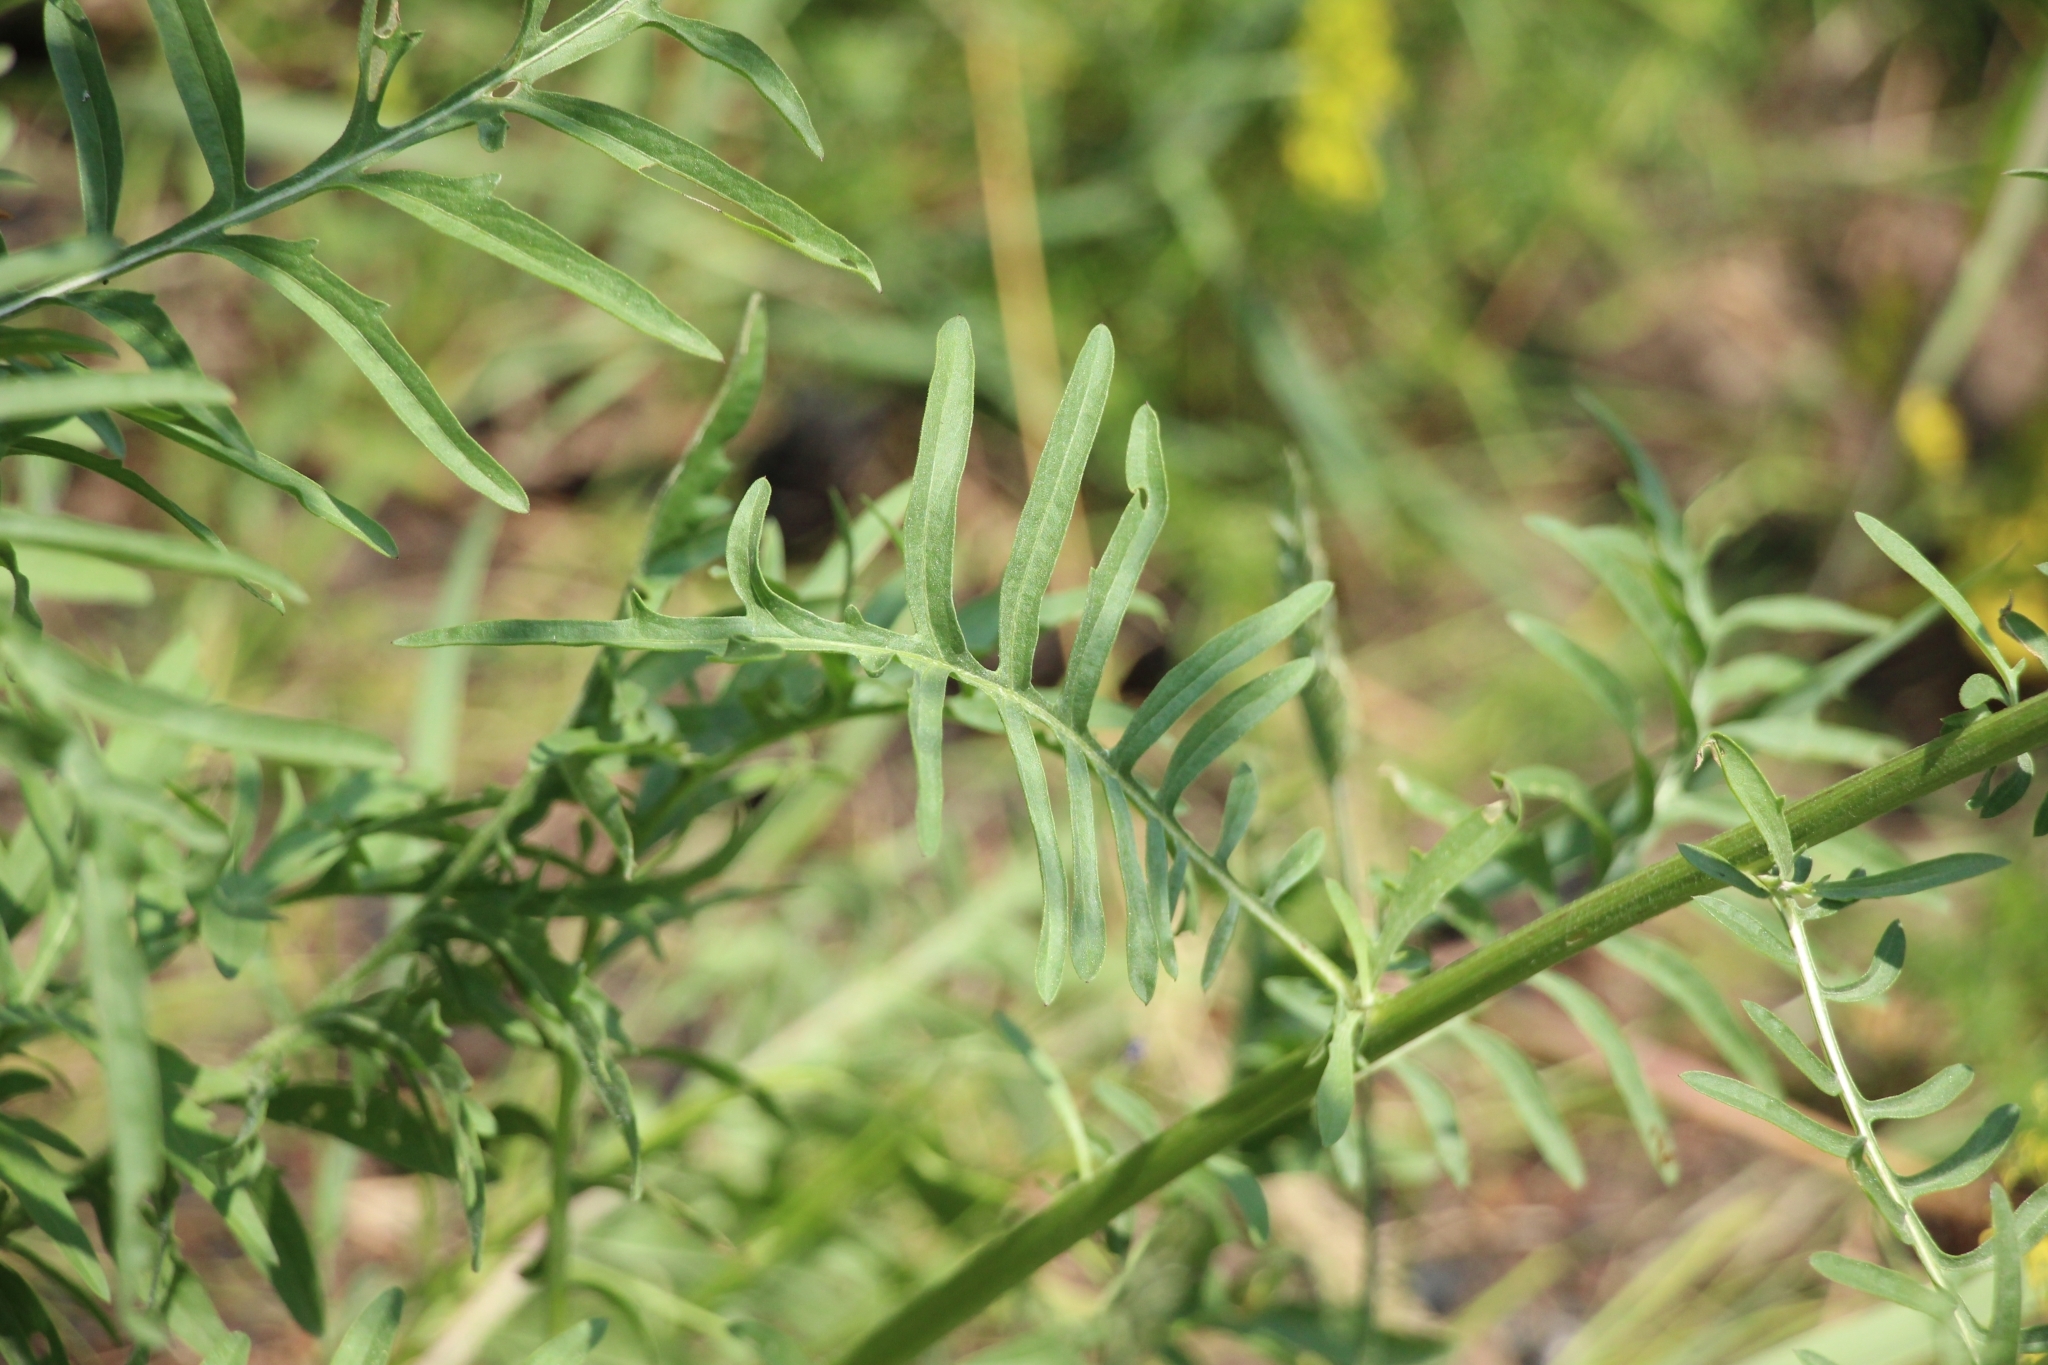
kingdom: Plantae
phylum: Tracheophyta
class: Magnoliopsida
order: Asterales
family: Asteraceae
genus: Centaurea
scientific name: Centaurea scabiosa
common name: Greater knapweed
